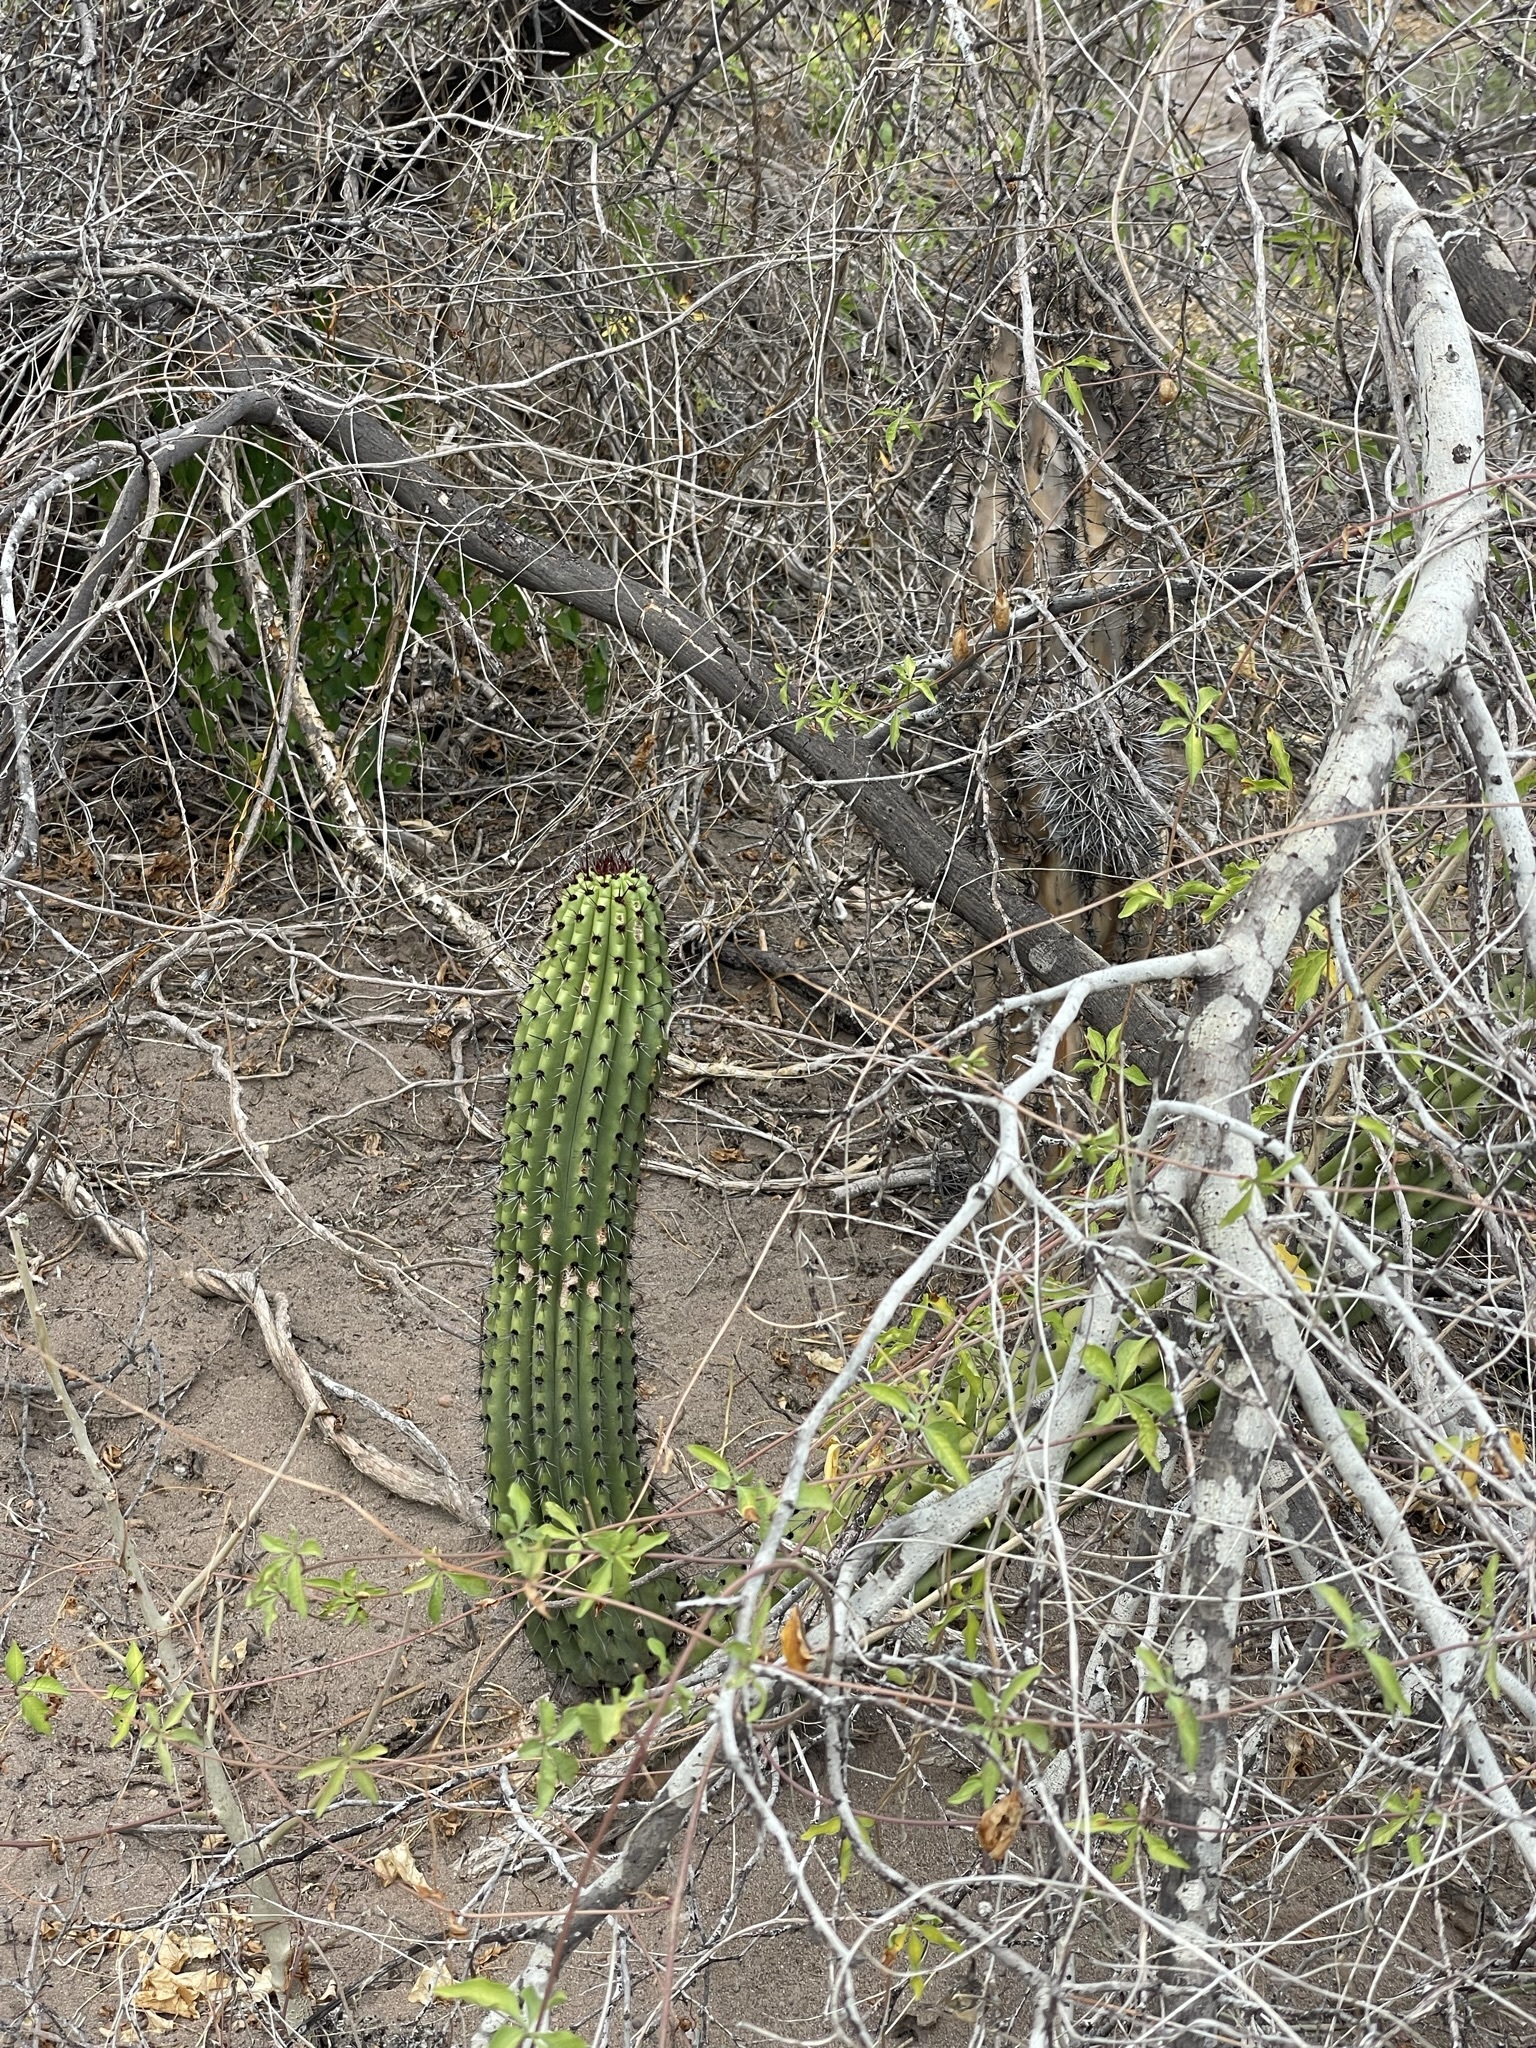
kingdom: Plantae
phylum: Tracheophyta
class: Magnoliopsida
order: Caryophyllales
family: Cactaceae
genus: Stenocereus
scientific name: Stenocereus thurberi
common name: Organ pipe cactus
